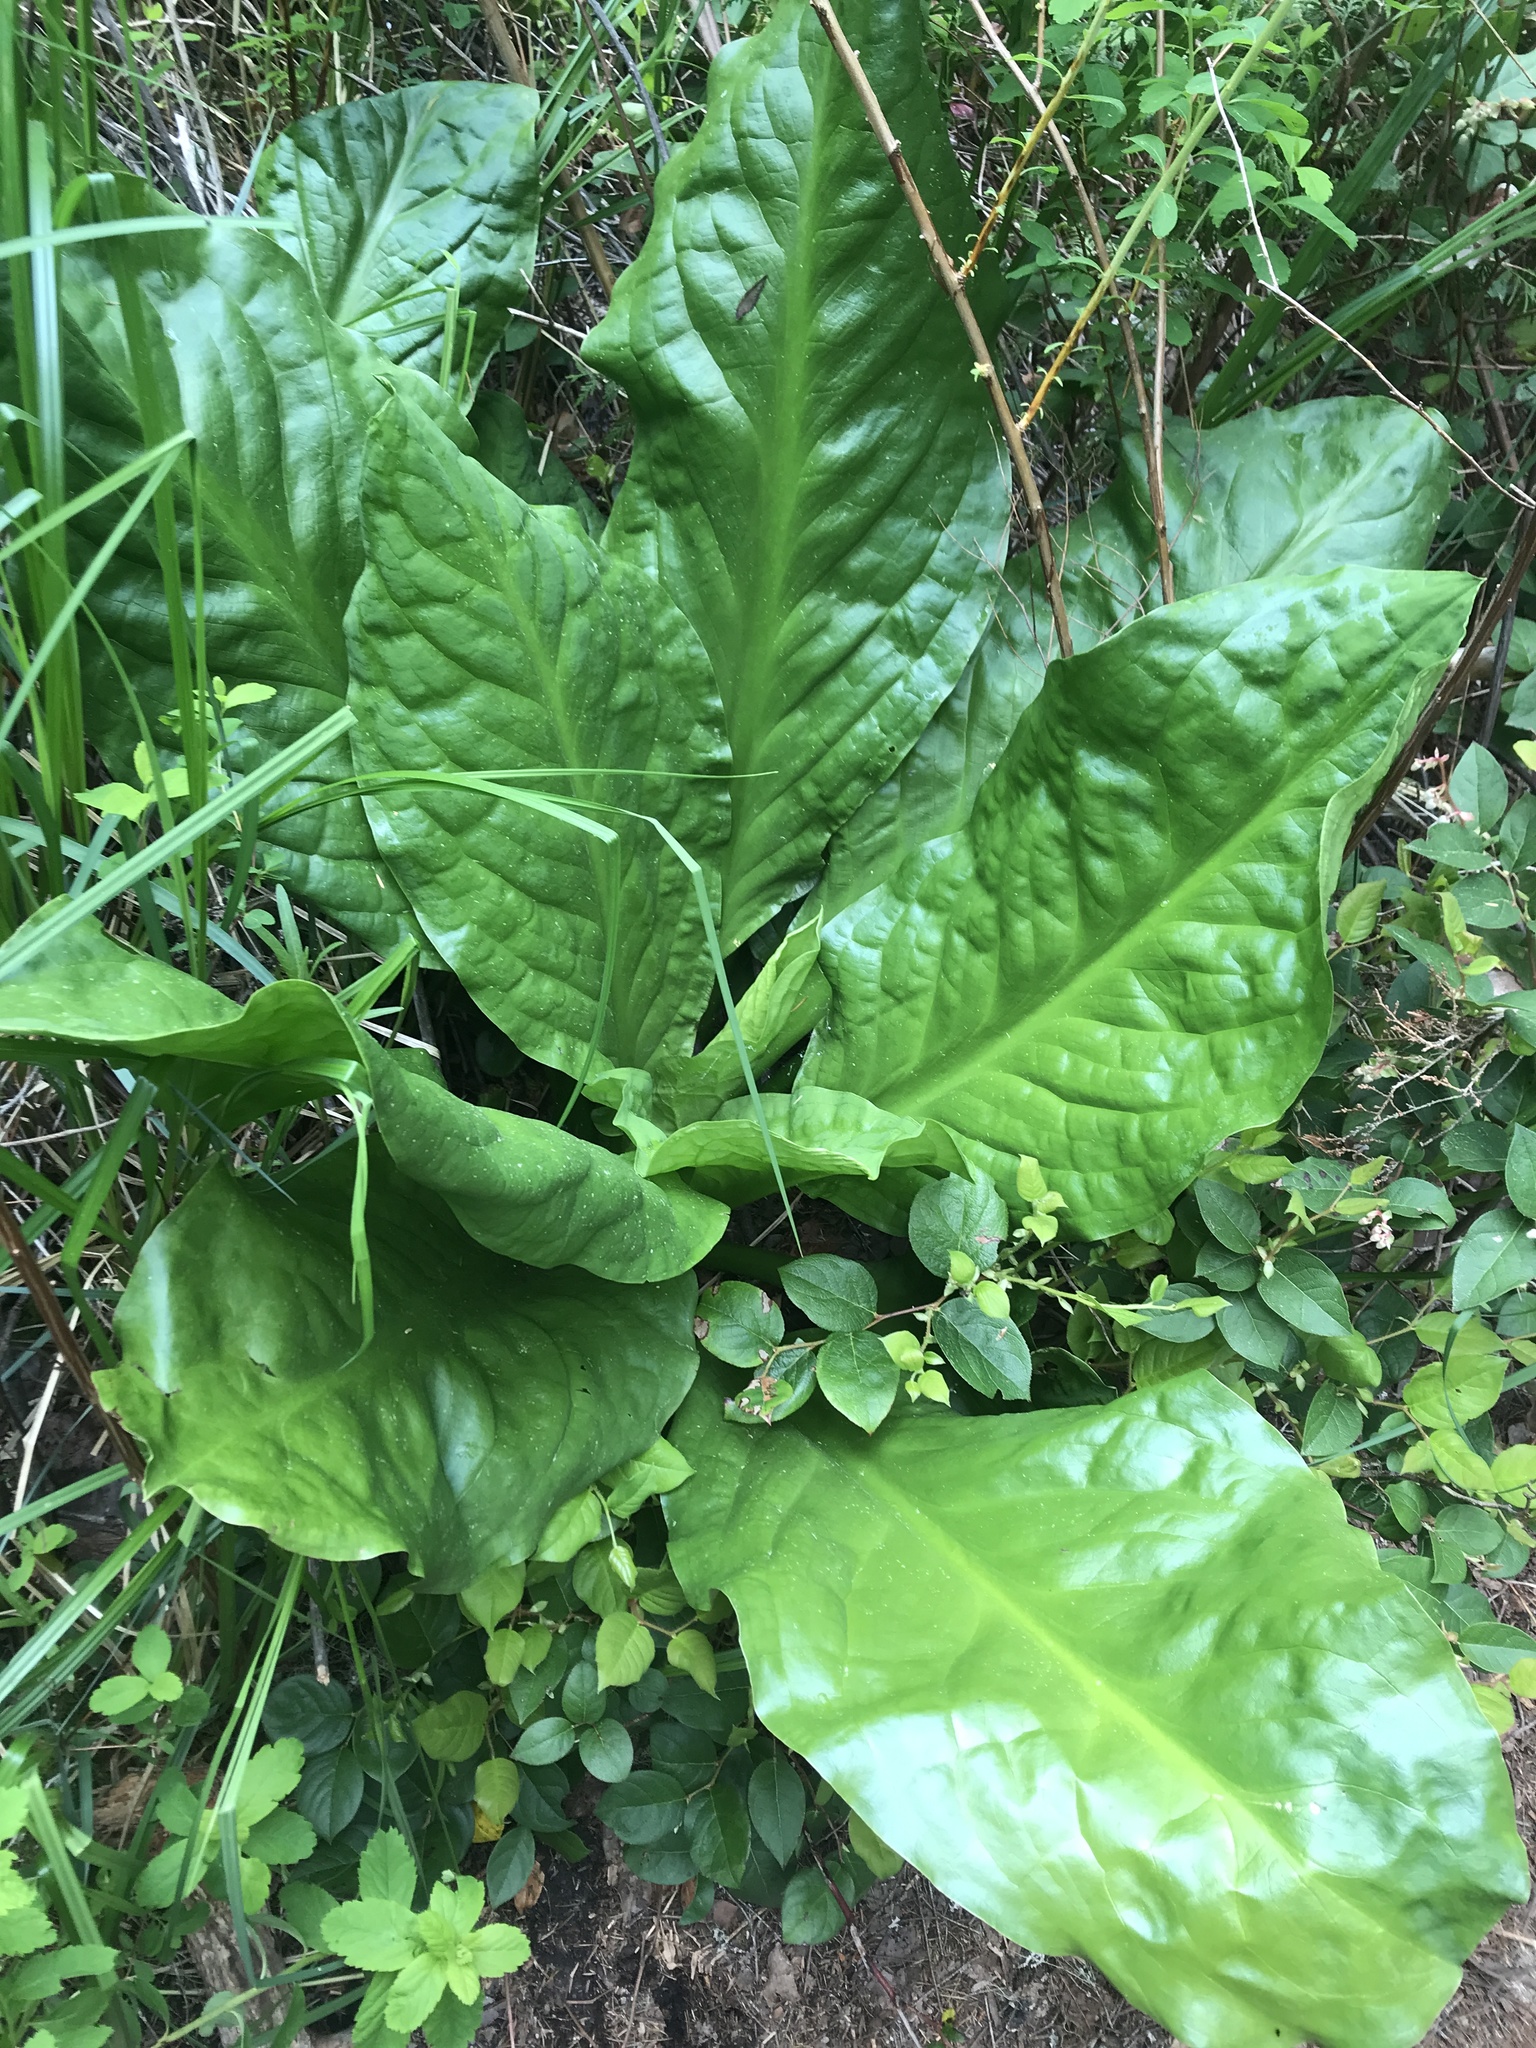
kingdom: Plantae
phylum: Tracheophyta
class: Liliopsida
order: Alismatales
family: Araceae
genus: Lysichiton
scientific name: Lysichiton americanus
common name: American skunk cabbage
